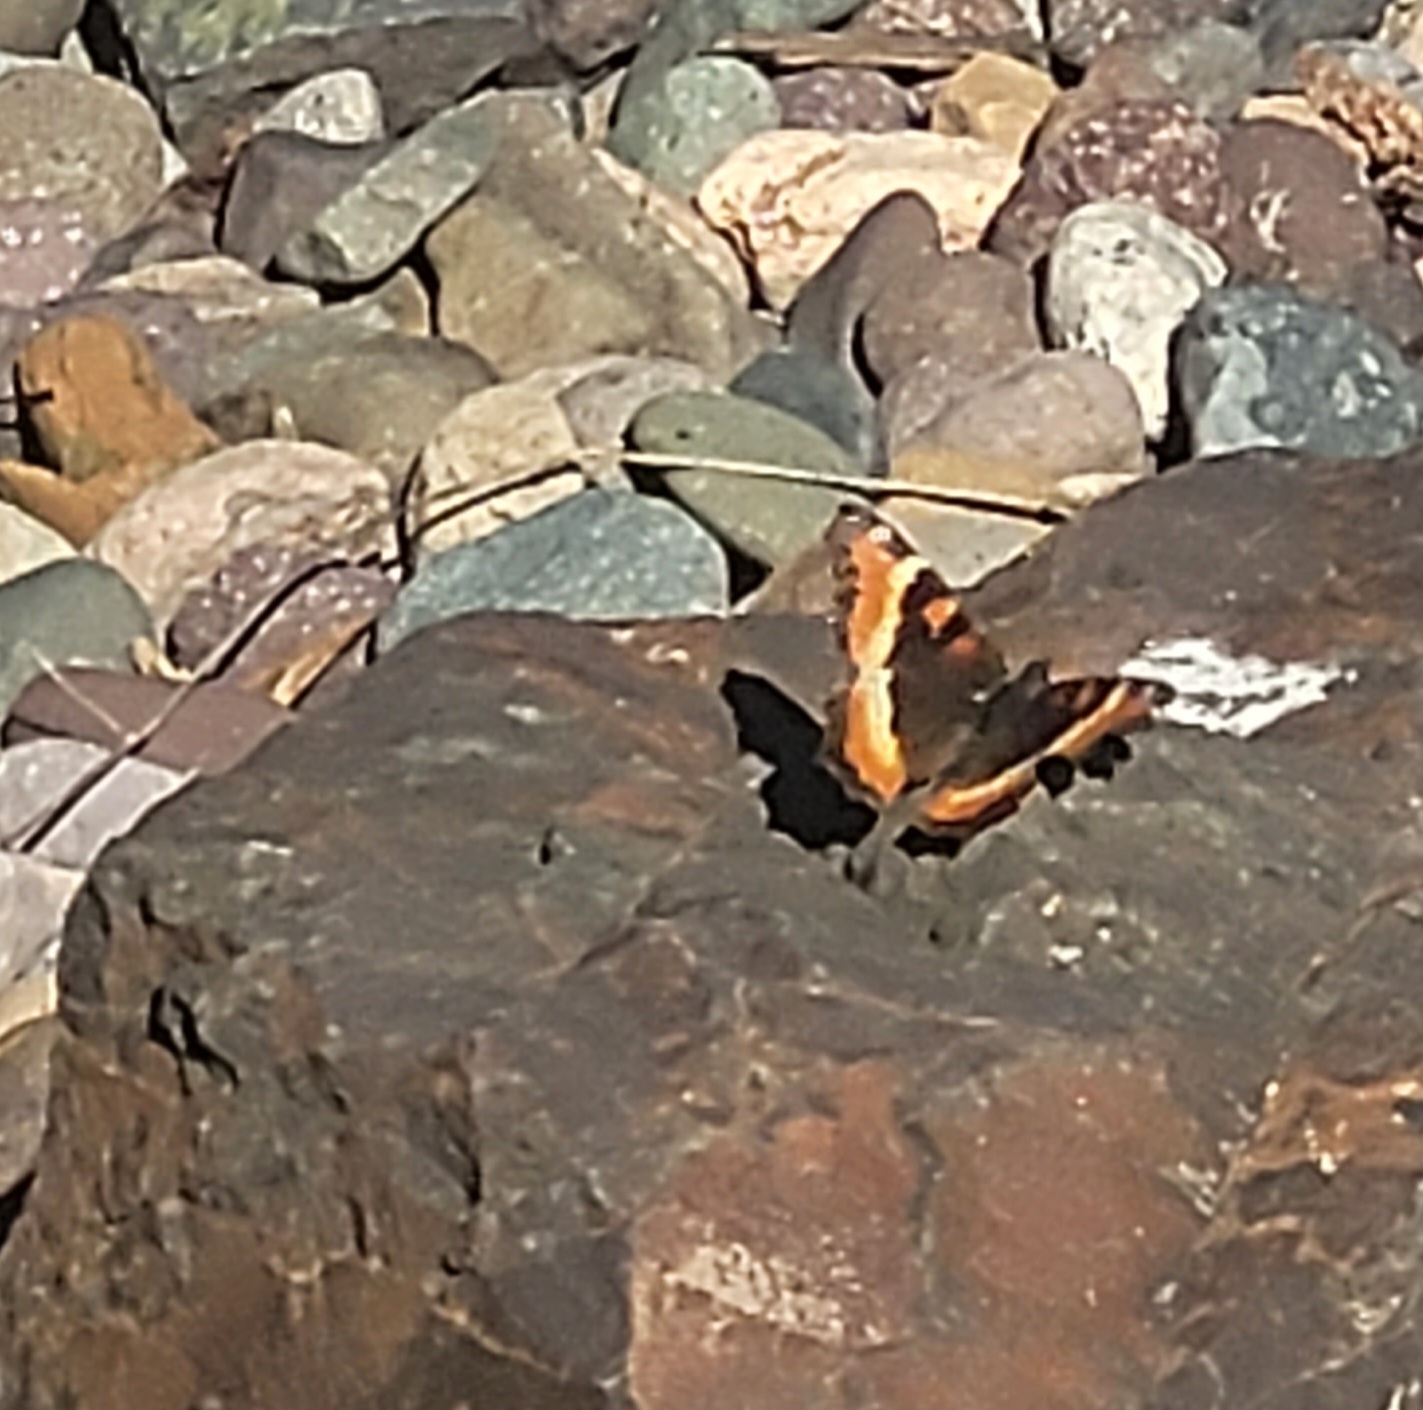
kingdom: Animalia
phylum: Arthropoda
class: Insecta
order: Lepidoptera
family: Nymphalidae
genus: Aglais
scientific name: Aglais milberti
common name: Milbert's tortoiseshell
